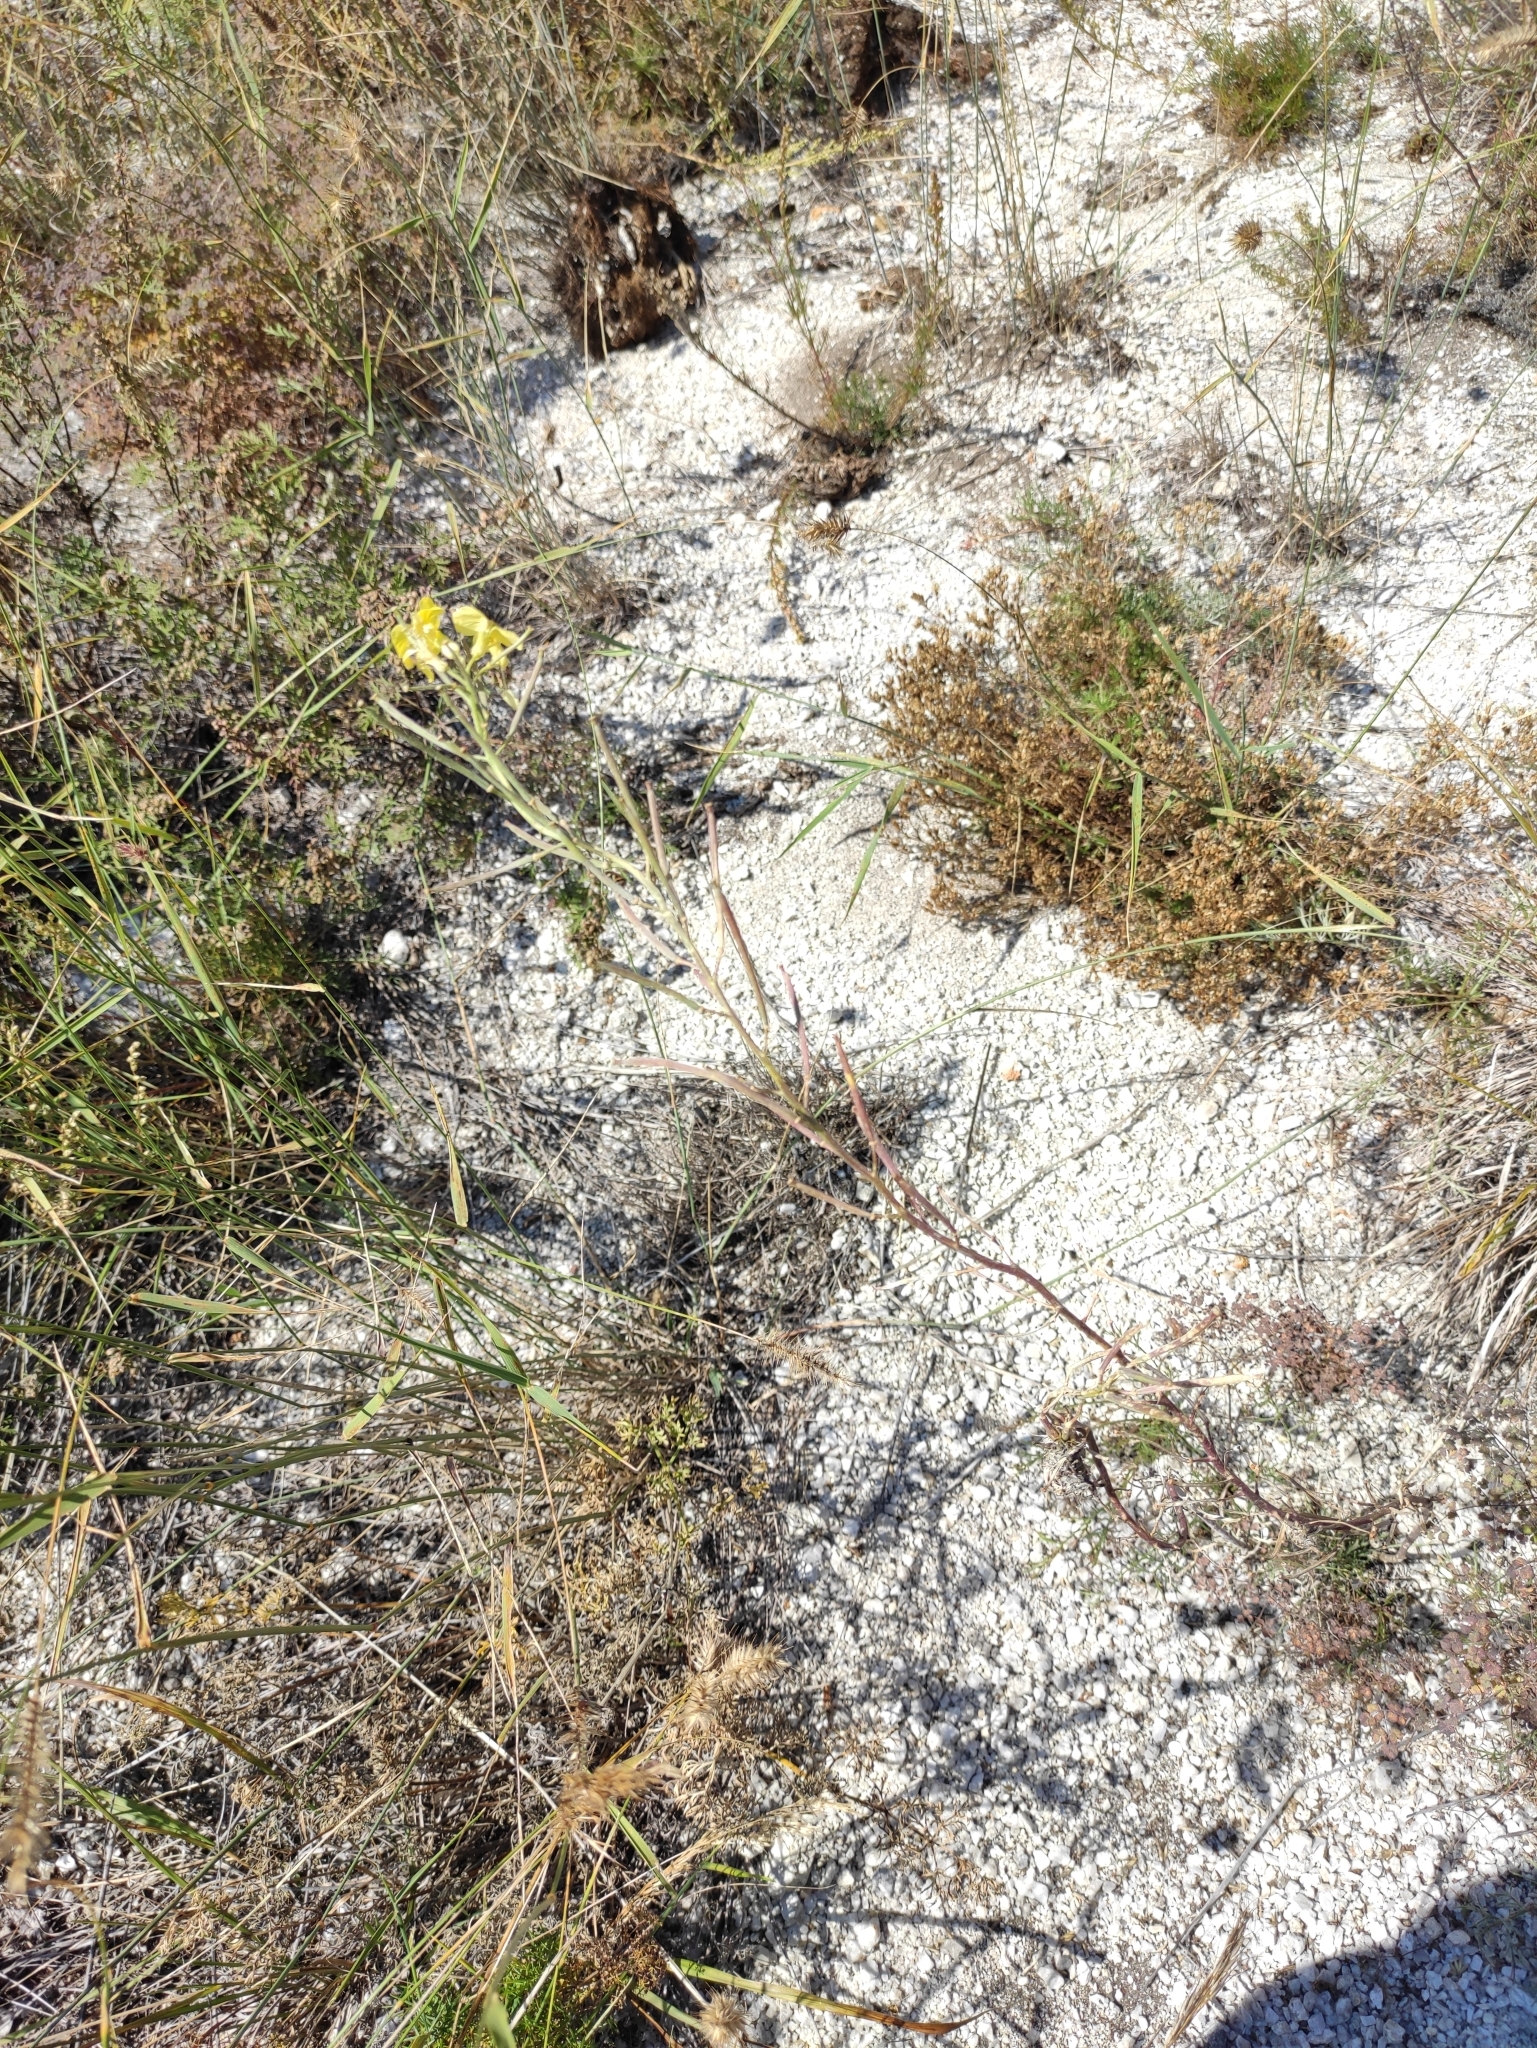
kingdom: Plantae
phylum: Tracheophyta
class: Magnoliopsida
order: Brassicales
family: Brassicaceae
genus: Erysimum
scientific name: Erysimum flavum
